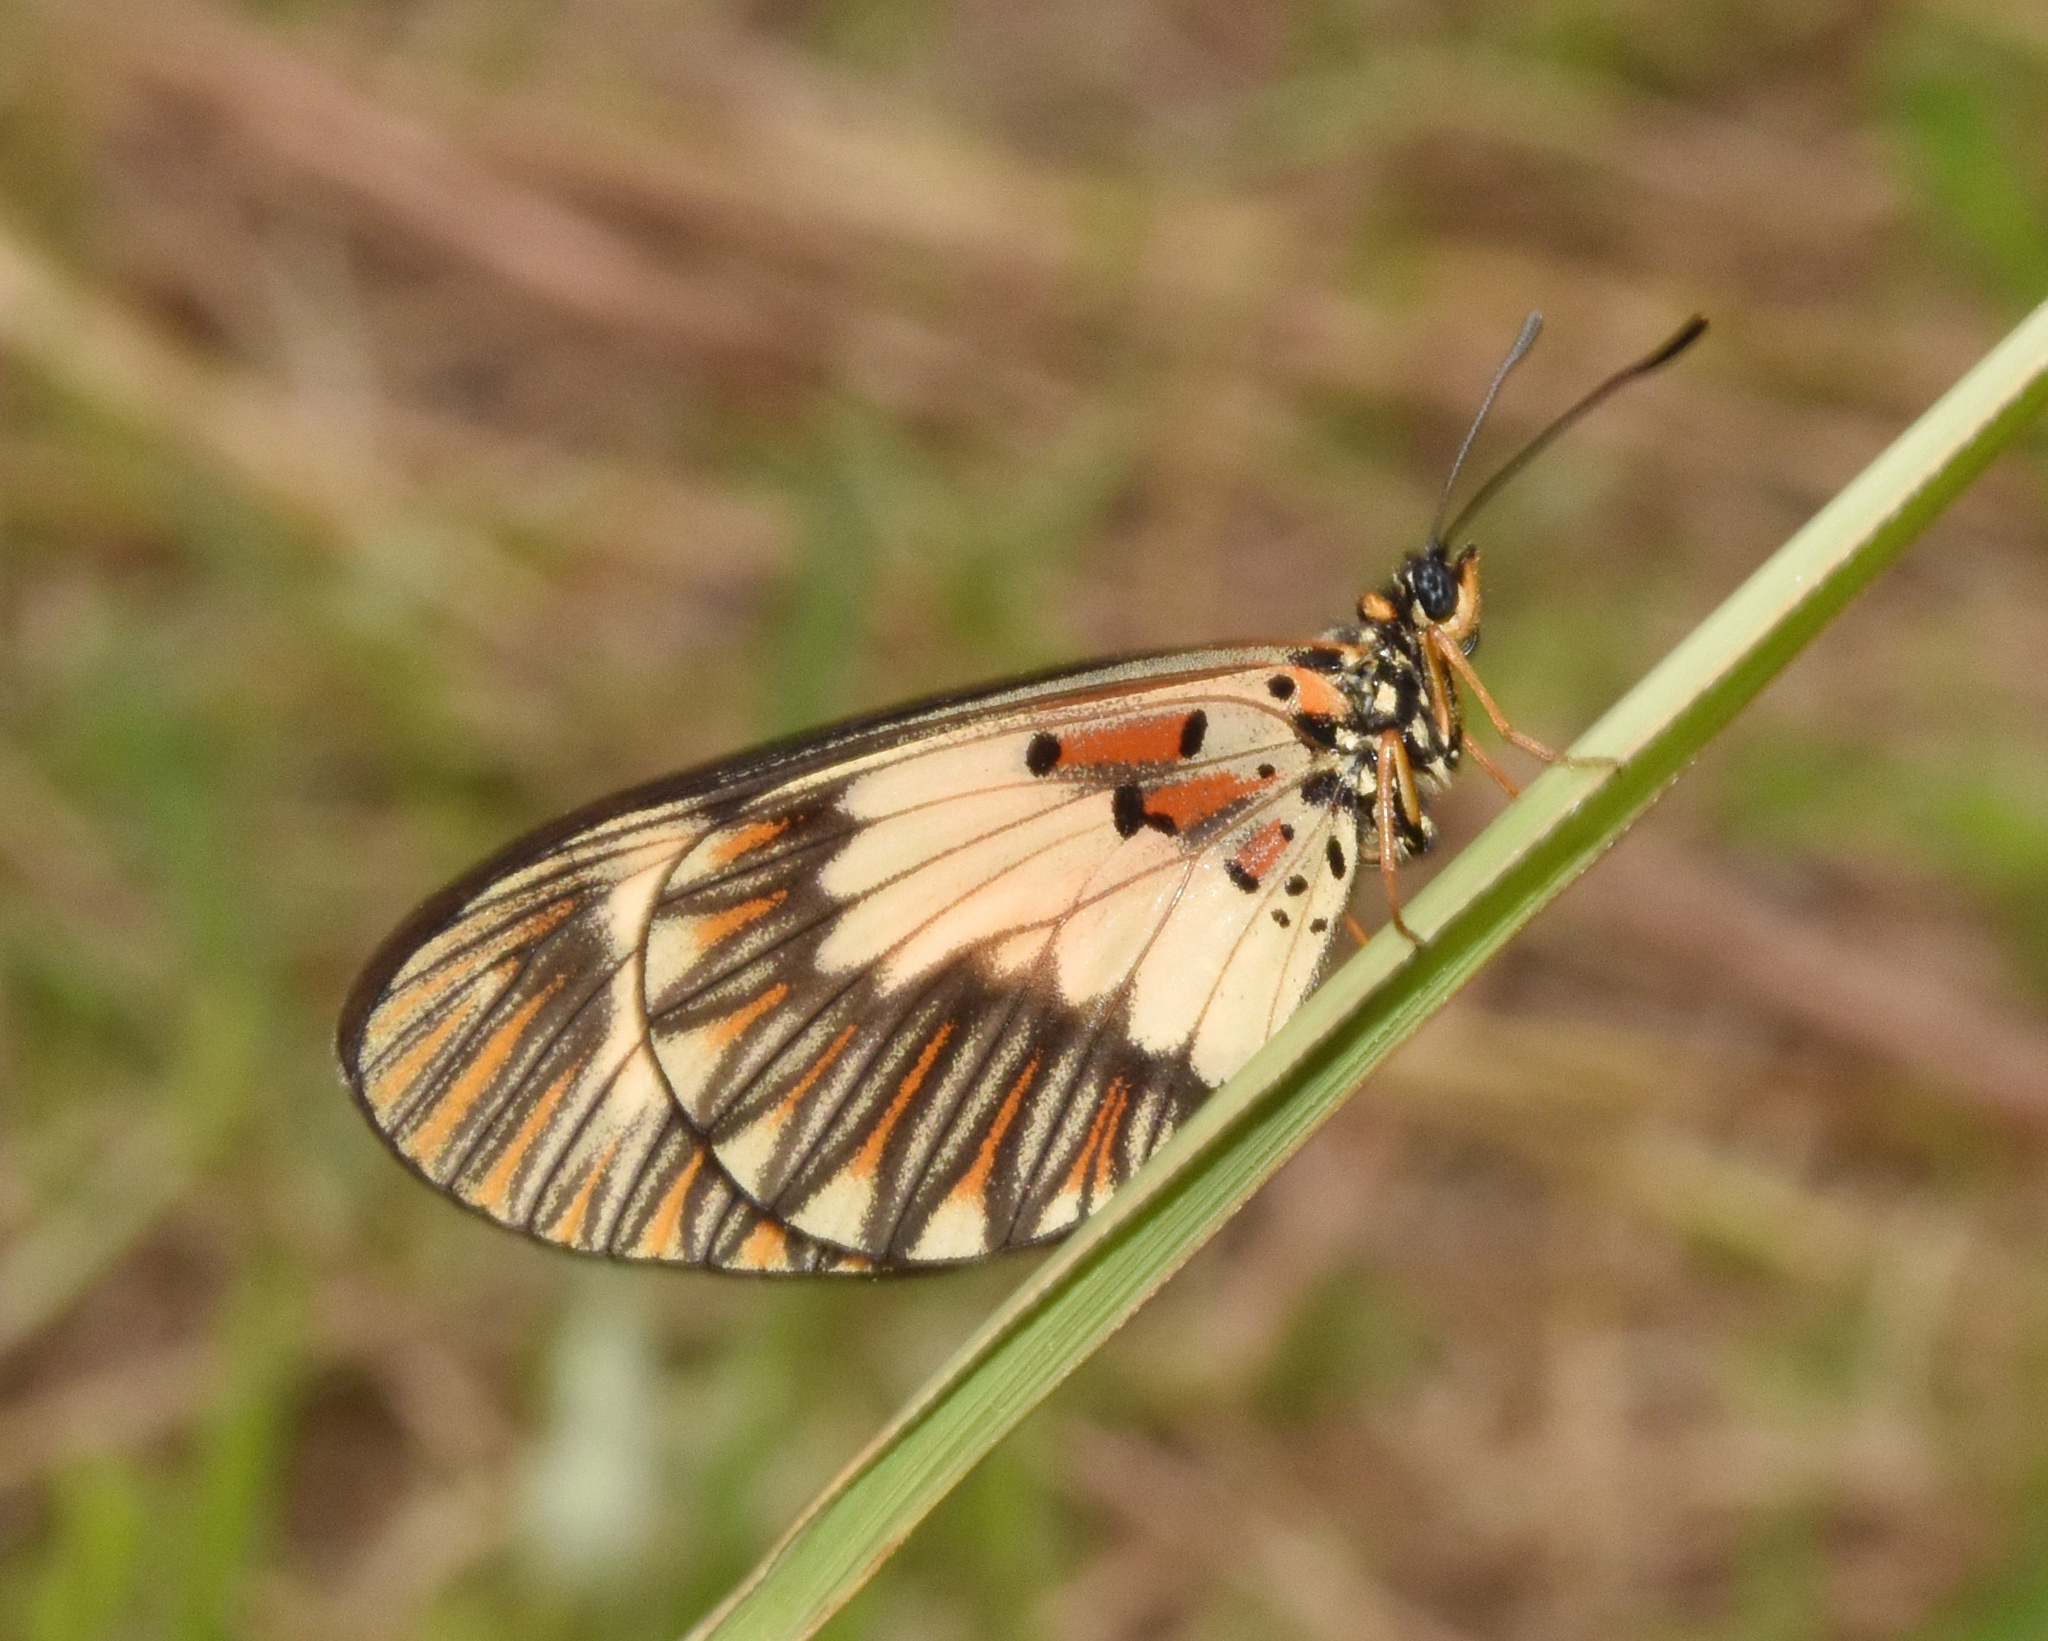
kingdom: Animalia
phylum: Arthropoda
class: Insecta
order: Lepidoptera
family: Nymphalidae
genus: Acraea
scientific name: Acraea cabira
